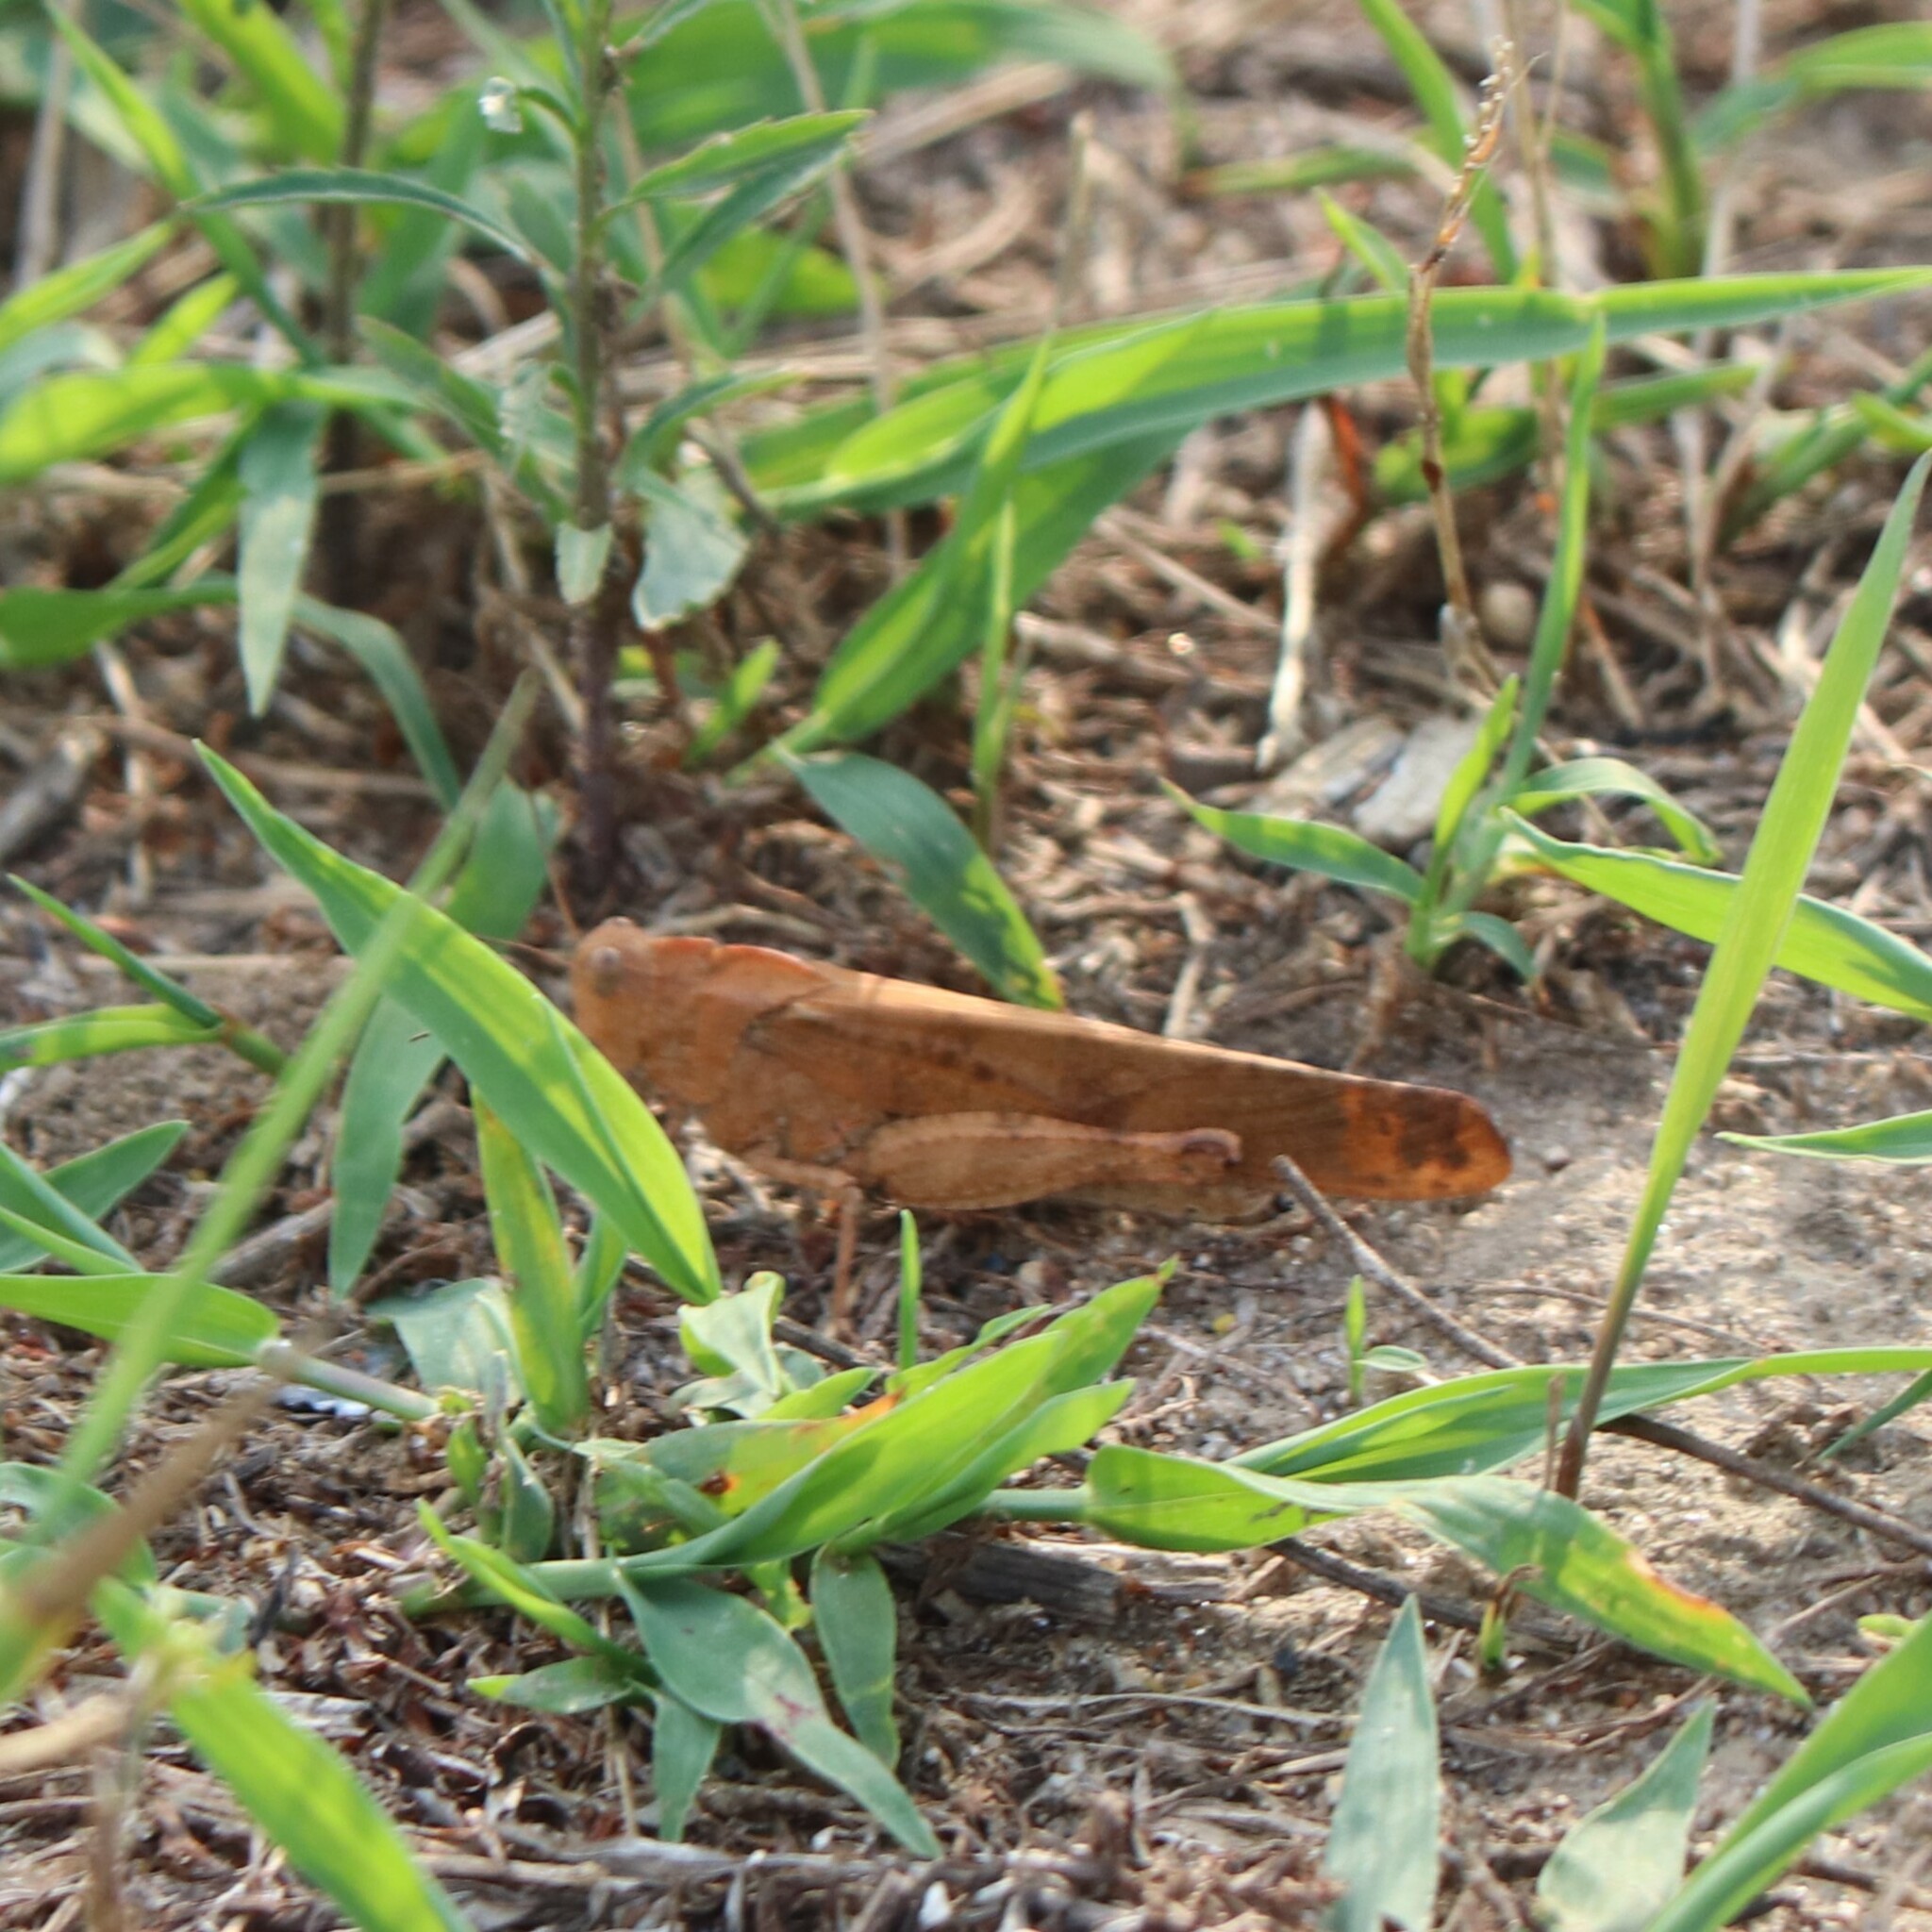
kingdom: Animalia
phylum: Arthropoda
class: Insecta
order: Orthoptera
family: Acrididae
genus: Dissosteira
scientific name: Dissosteira carolina
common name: Carolina grasshopper
